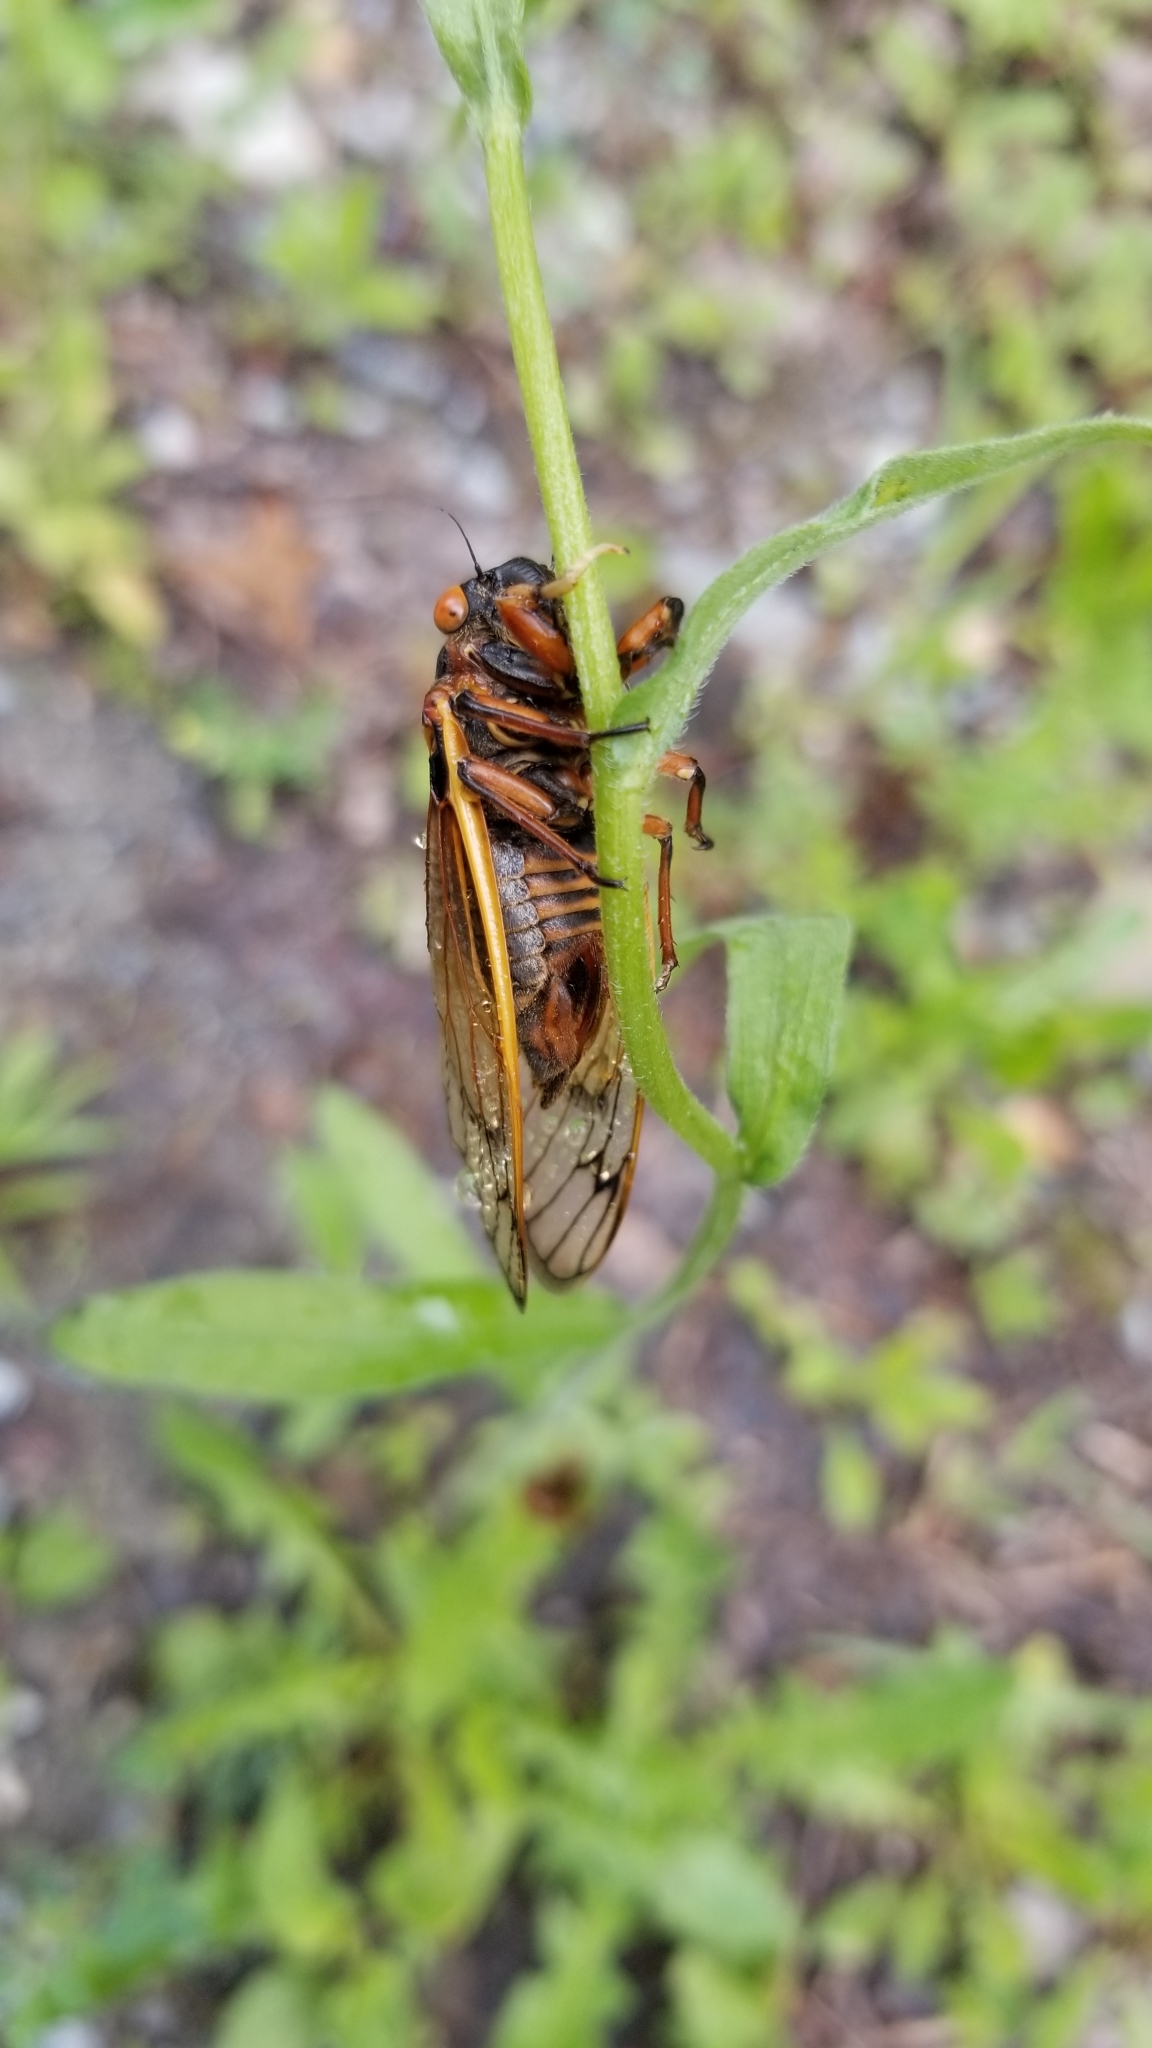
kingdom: Animalia
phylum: Arthropoda
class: Insecta
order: Hemiptera
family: Cicadidae
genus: Magicicada
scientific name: Magicicada septendecim
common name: Periodical cicada
